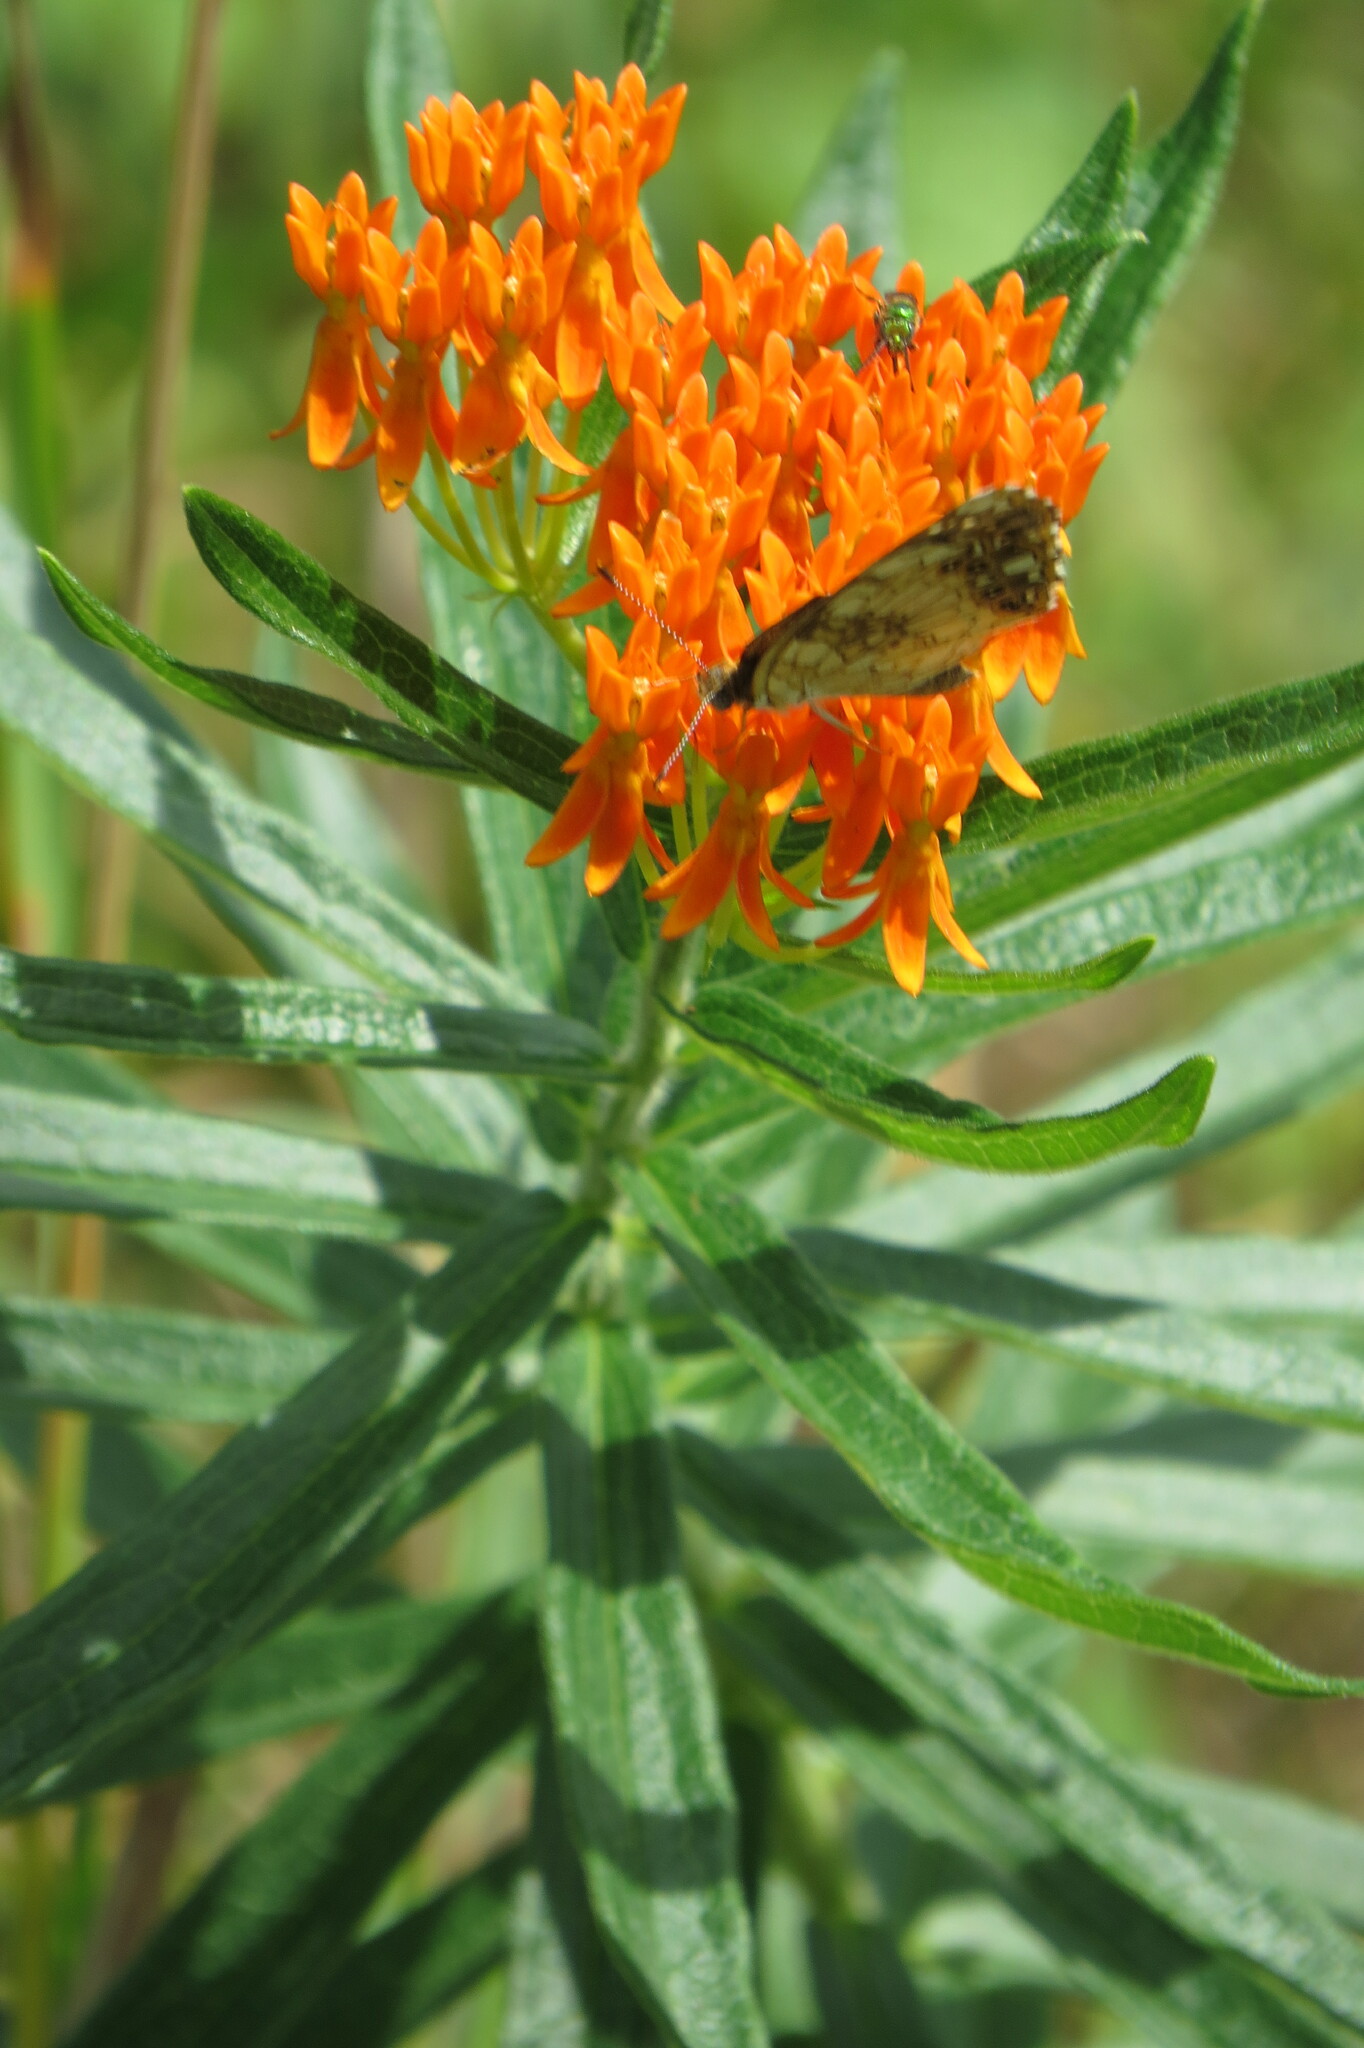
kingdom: Animalia
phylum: Arthropoda
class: Insecta
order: Lepidoptera
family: Nymphalidae
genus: Chlosyne
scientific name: Chlosyne nycteis
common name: Silvery checkerspot
